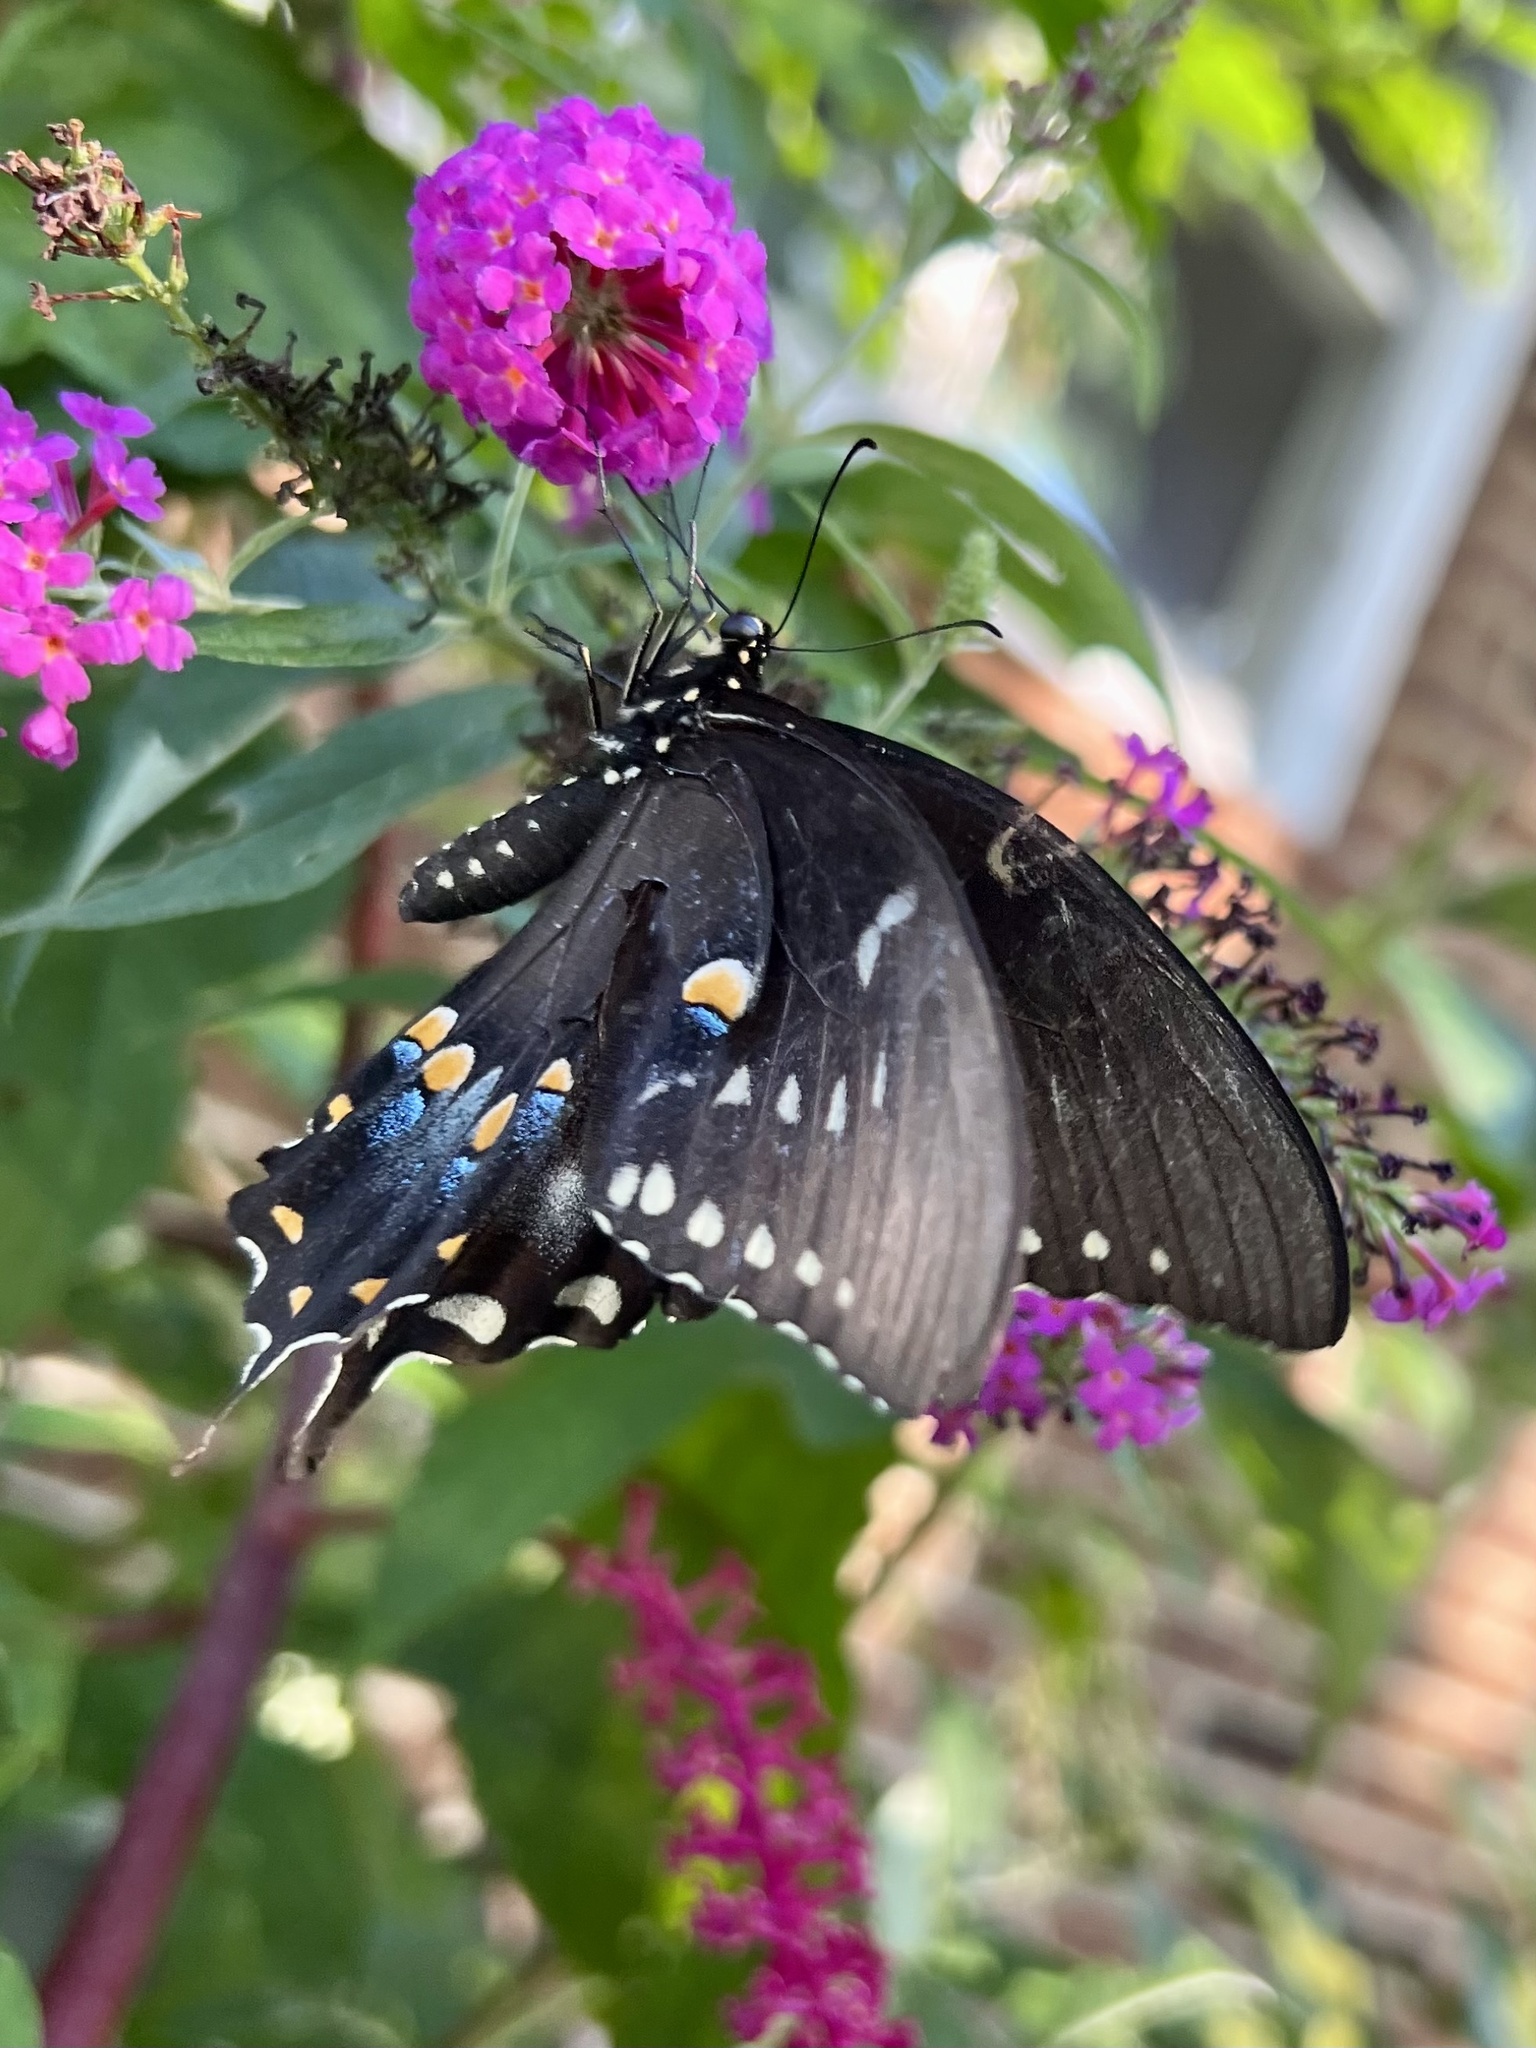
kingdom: Animalia
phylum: Arthropoda
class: Insecta
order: Lepidoptera
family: Papilionidae
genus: Papilio
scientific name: Papilio troilus
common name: Spicebush swallowtail
